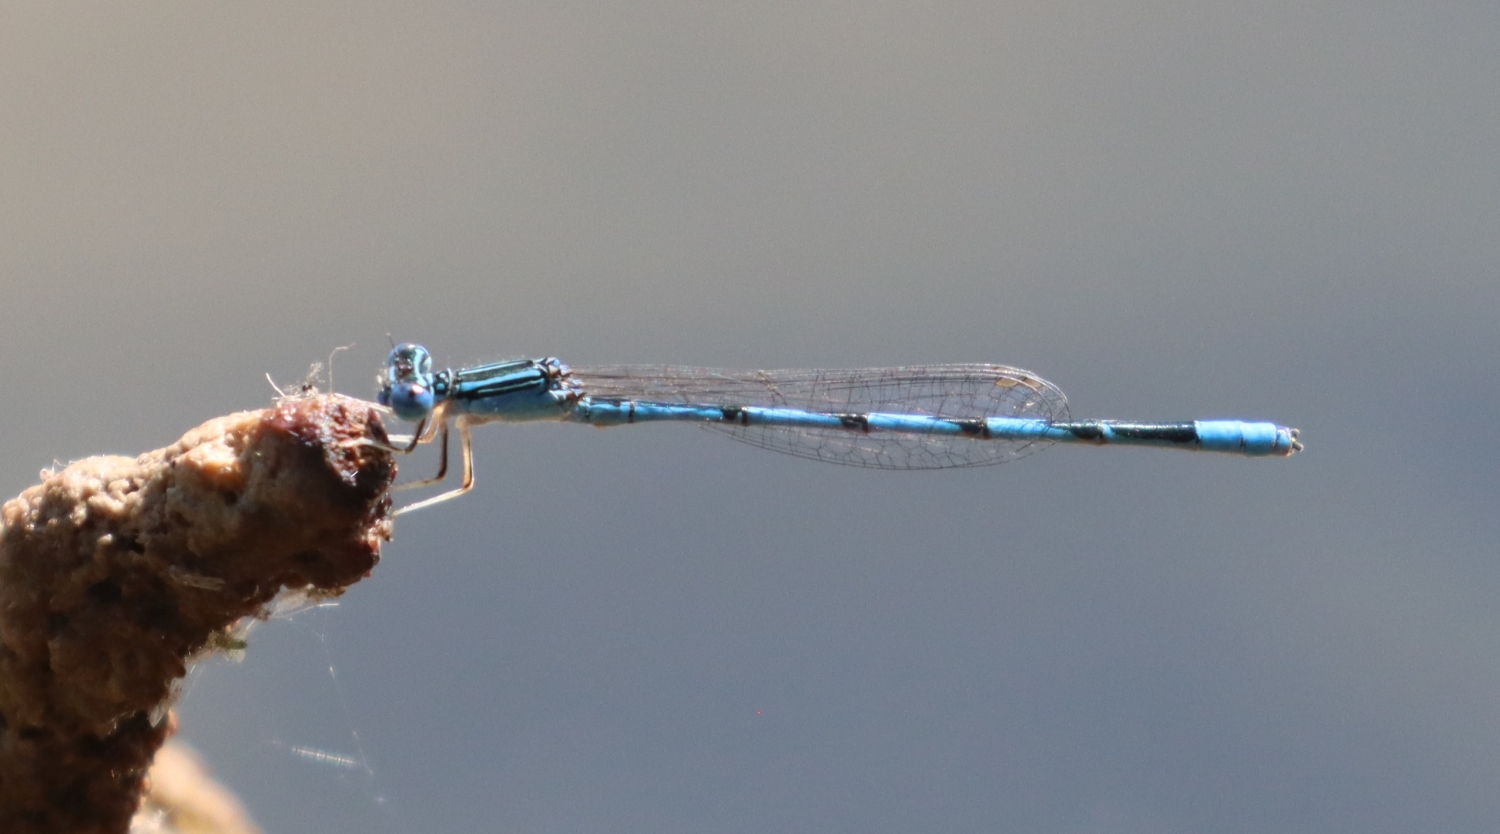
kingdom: Animalia
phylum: Arthropoda
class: Insecta
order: Odonata
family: Coenagrionidae
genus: Enallagma
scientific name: Enallagma basidens
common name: Double-striped bluet
